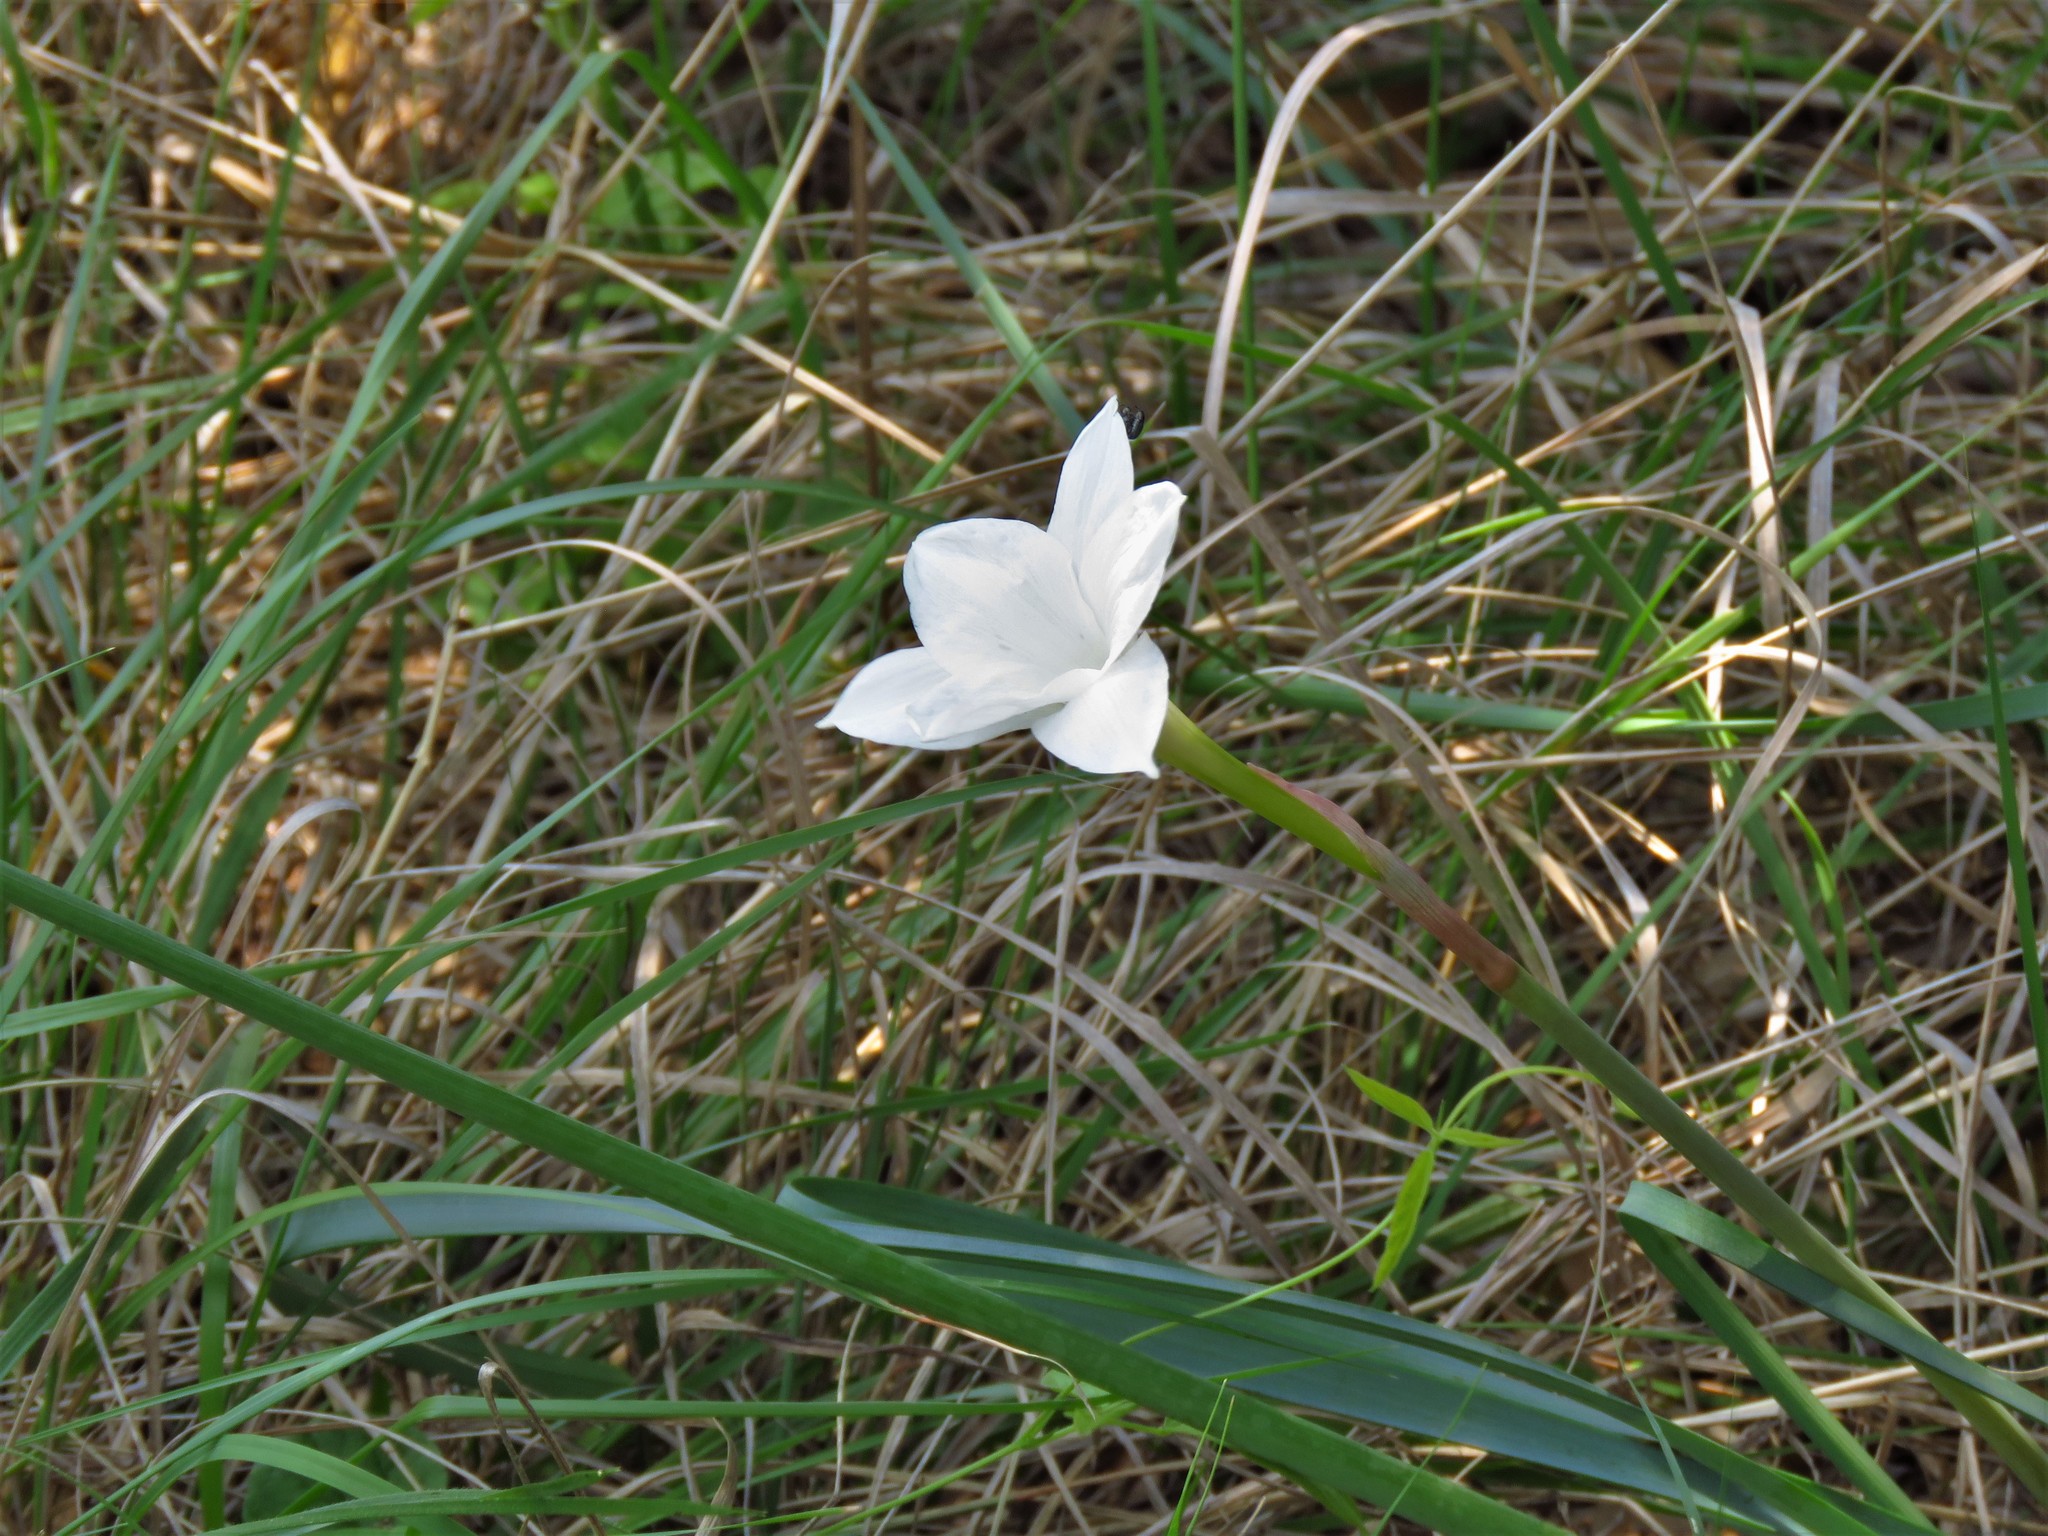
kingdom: Plantae
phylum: Tracheophyta
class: Liliopsida
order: Asparagales
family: Amaryllidaceae
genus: Zephyranthes
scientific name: Zephyranthes drummondii
